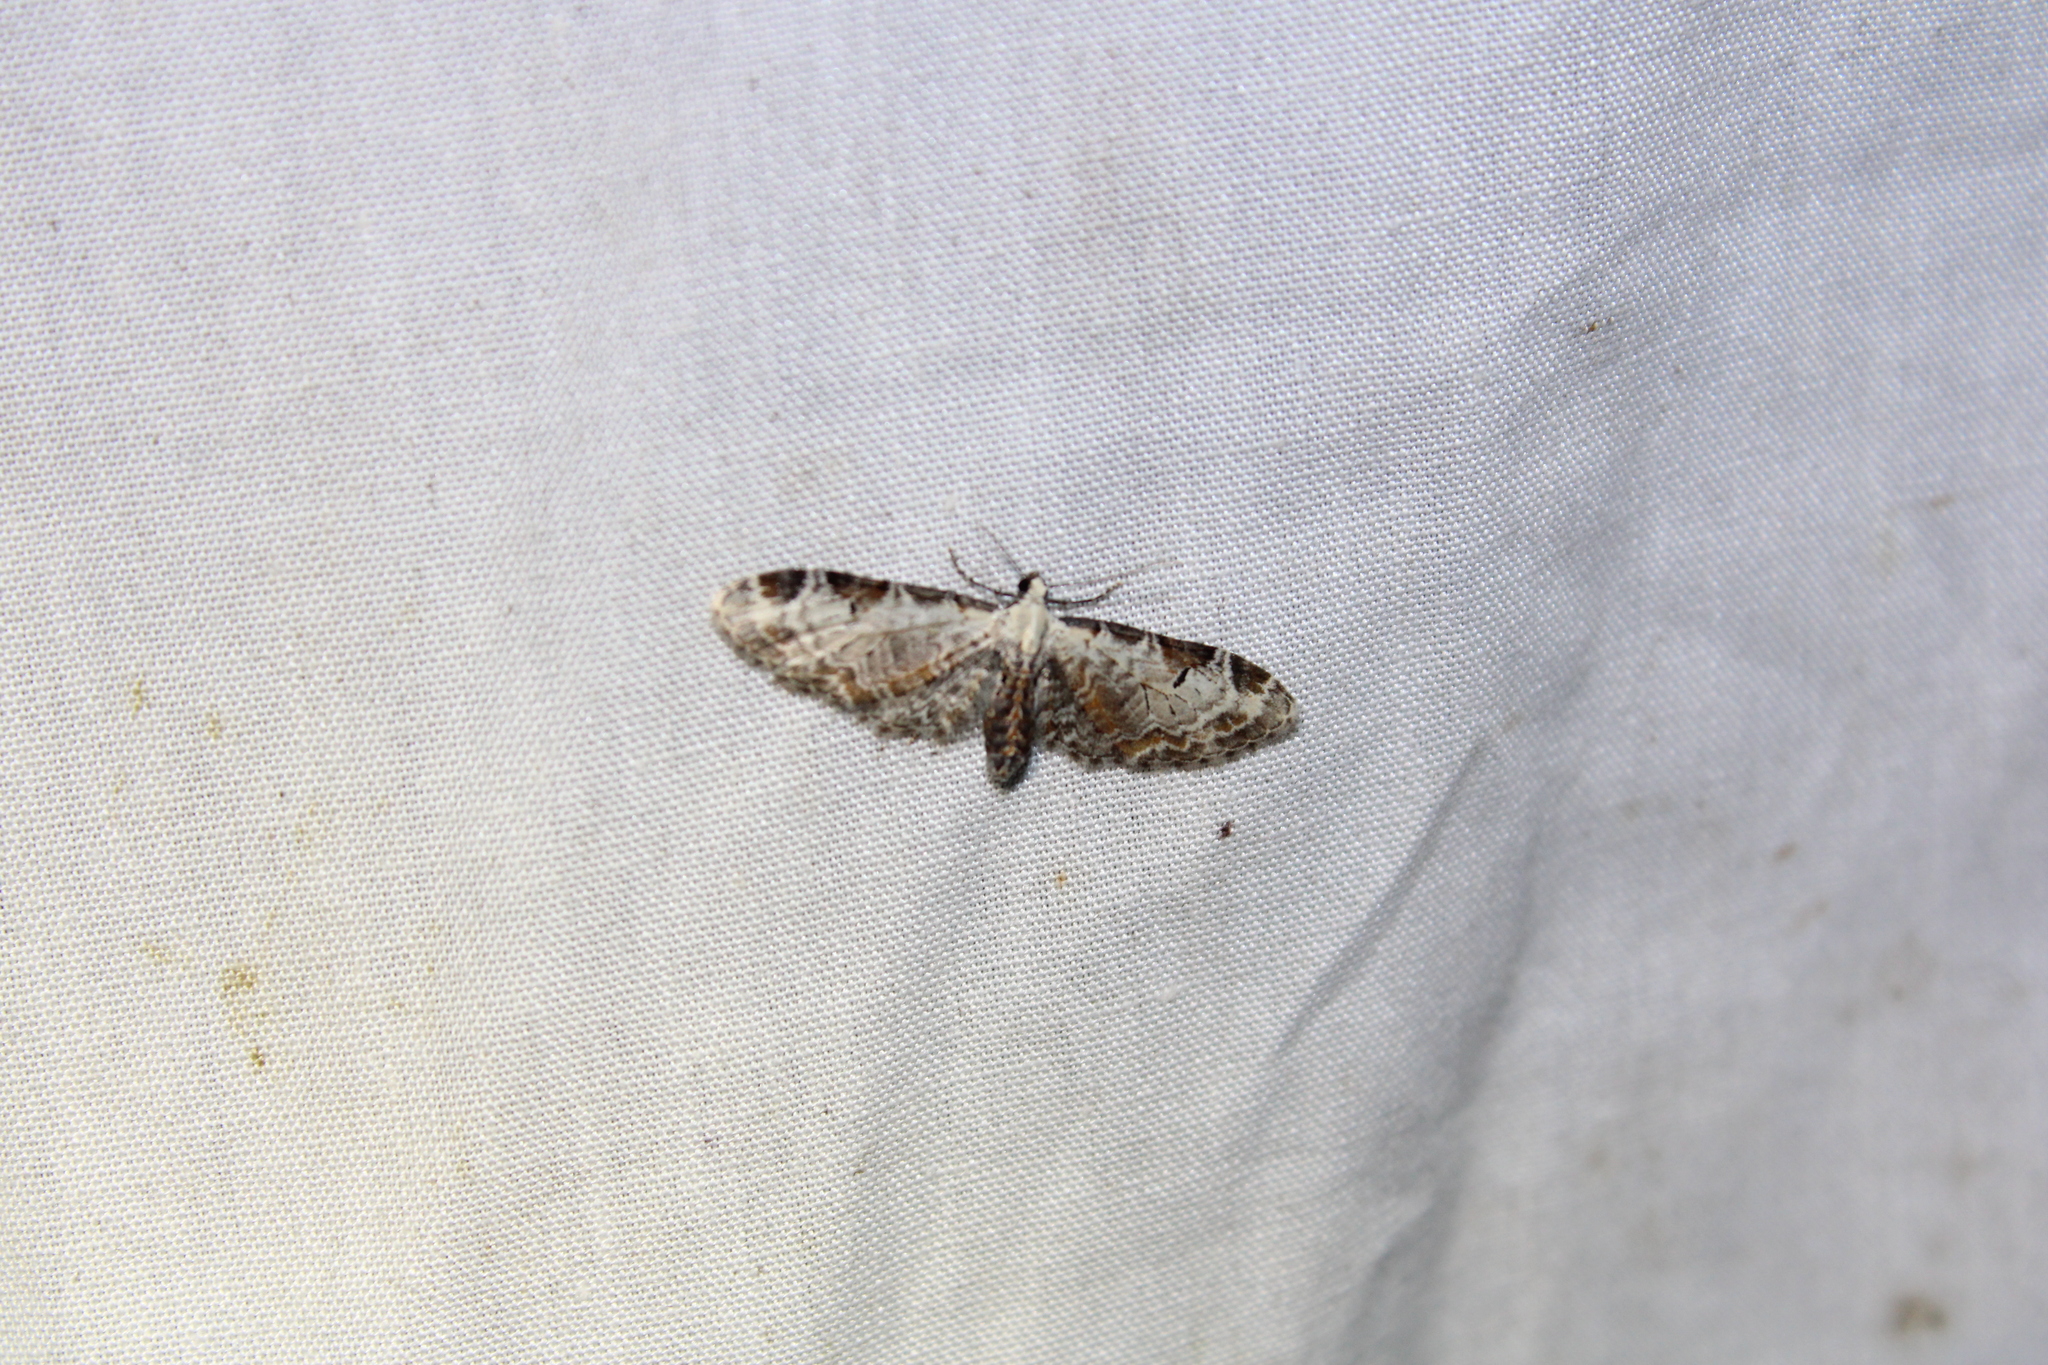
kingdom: Animalia
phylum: Arthropoda
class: Insecta
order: Lepidoptera
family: Geometridae
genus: Eupithecia
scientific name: Eupithecia ravocostaliata
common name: Great varigated pug
